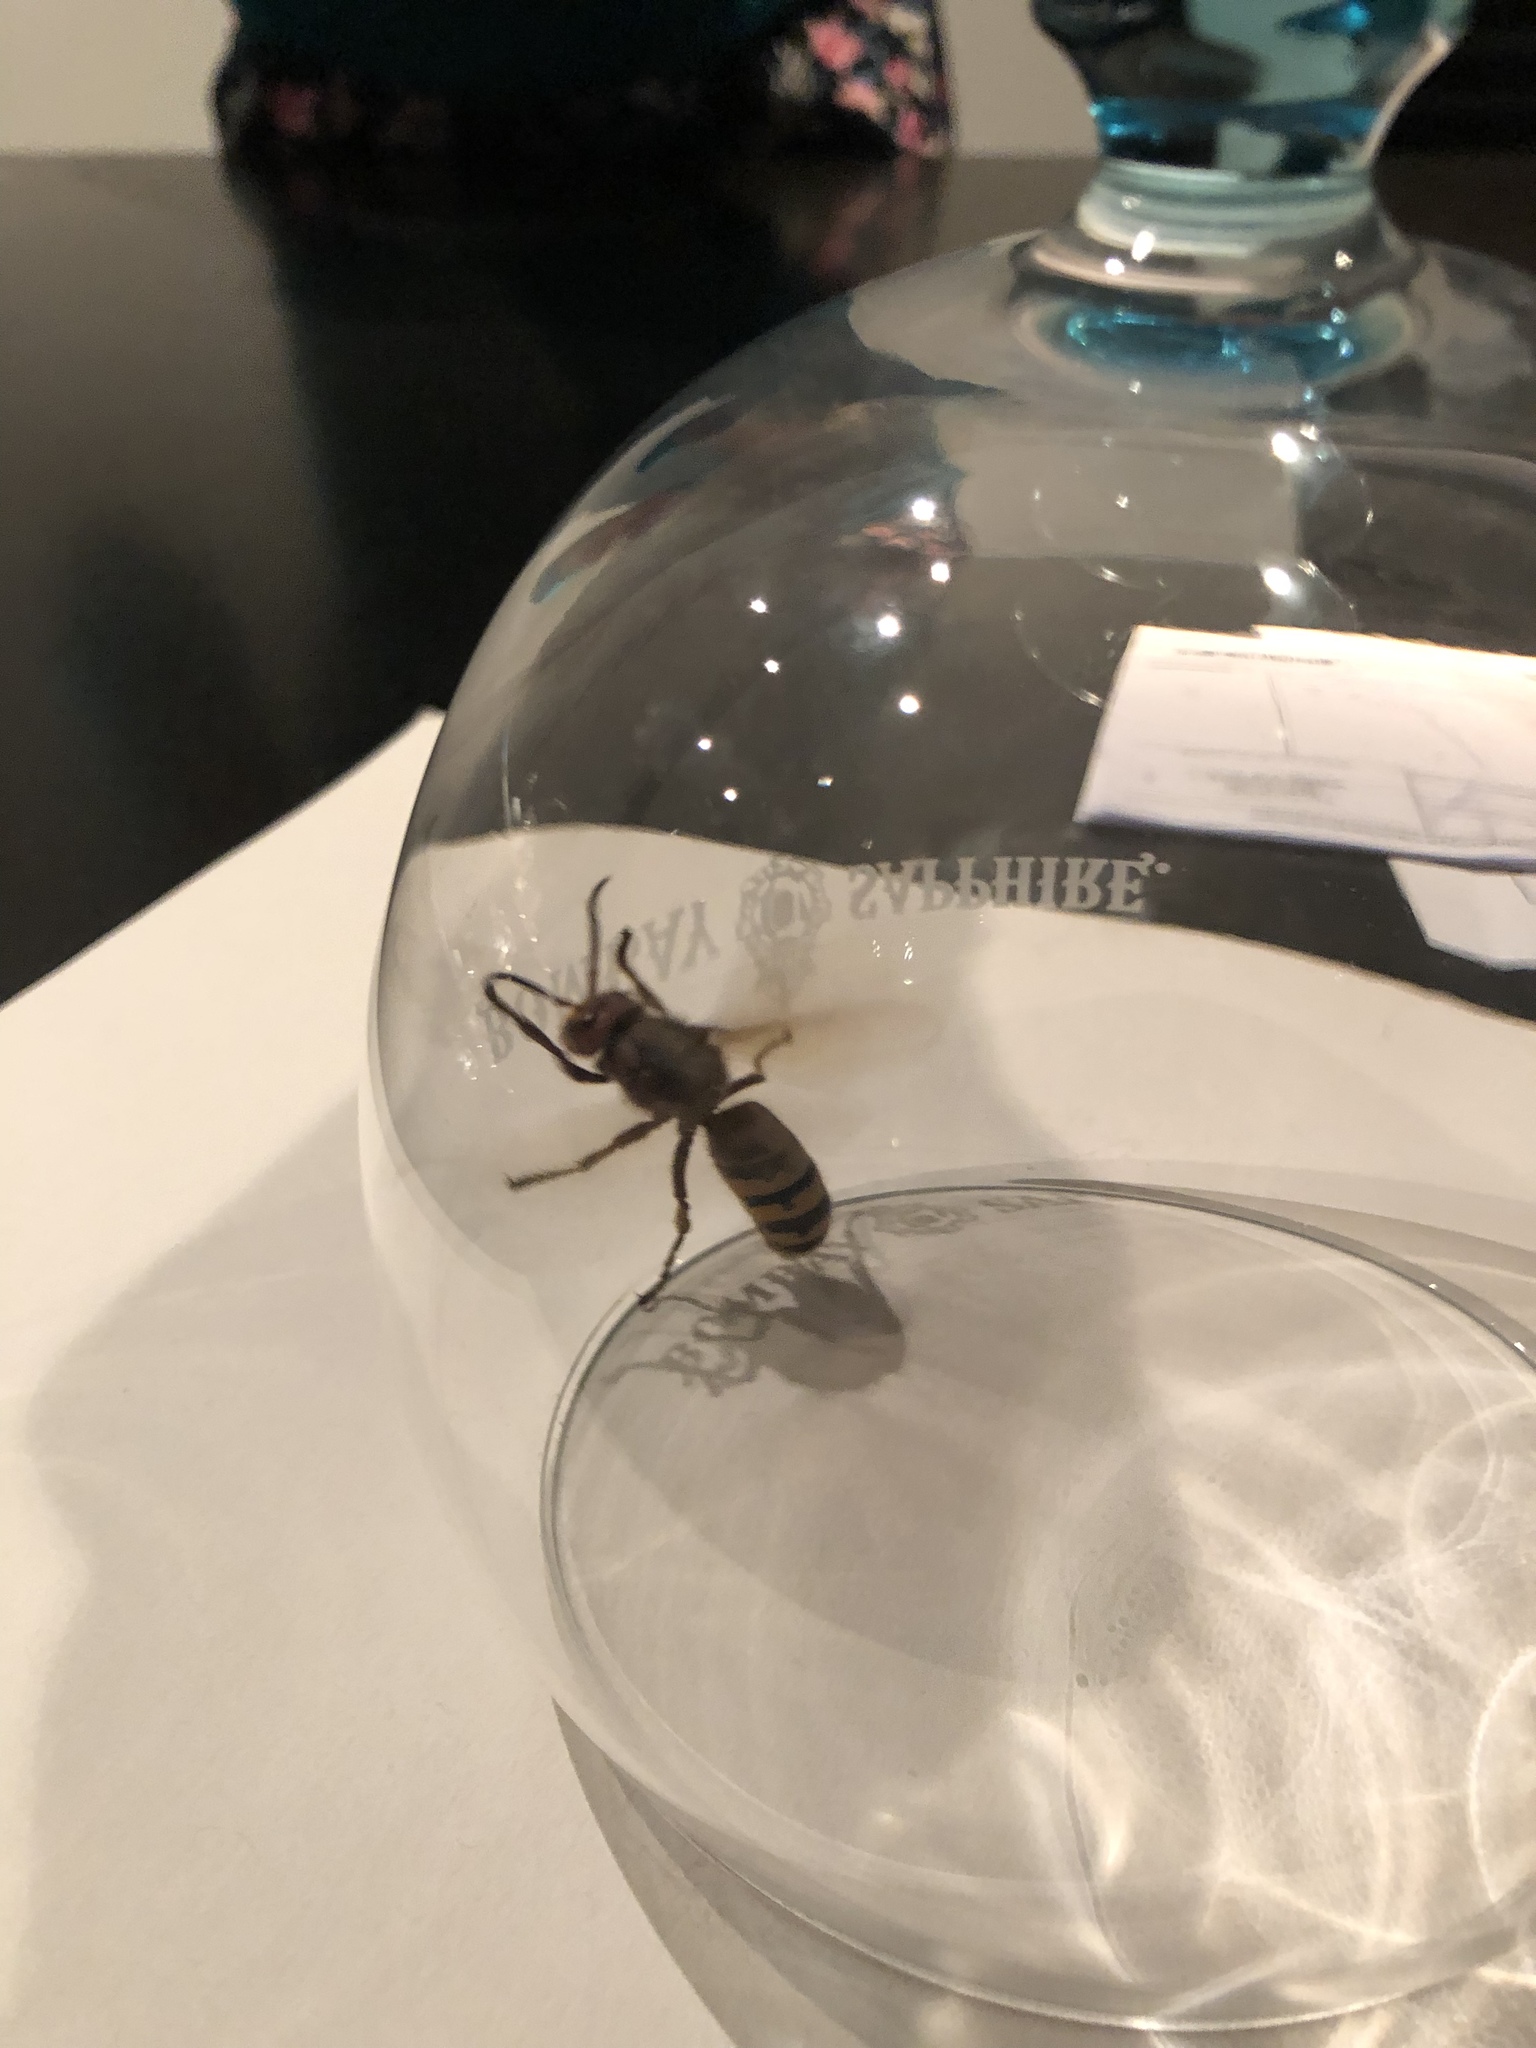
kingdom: Animalia
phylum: Arthropoda
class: Insecta
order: Hymenoptera
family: Vespidae
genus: Vespa
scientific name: Vespa crabro
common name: Hornet
